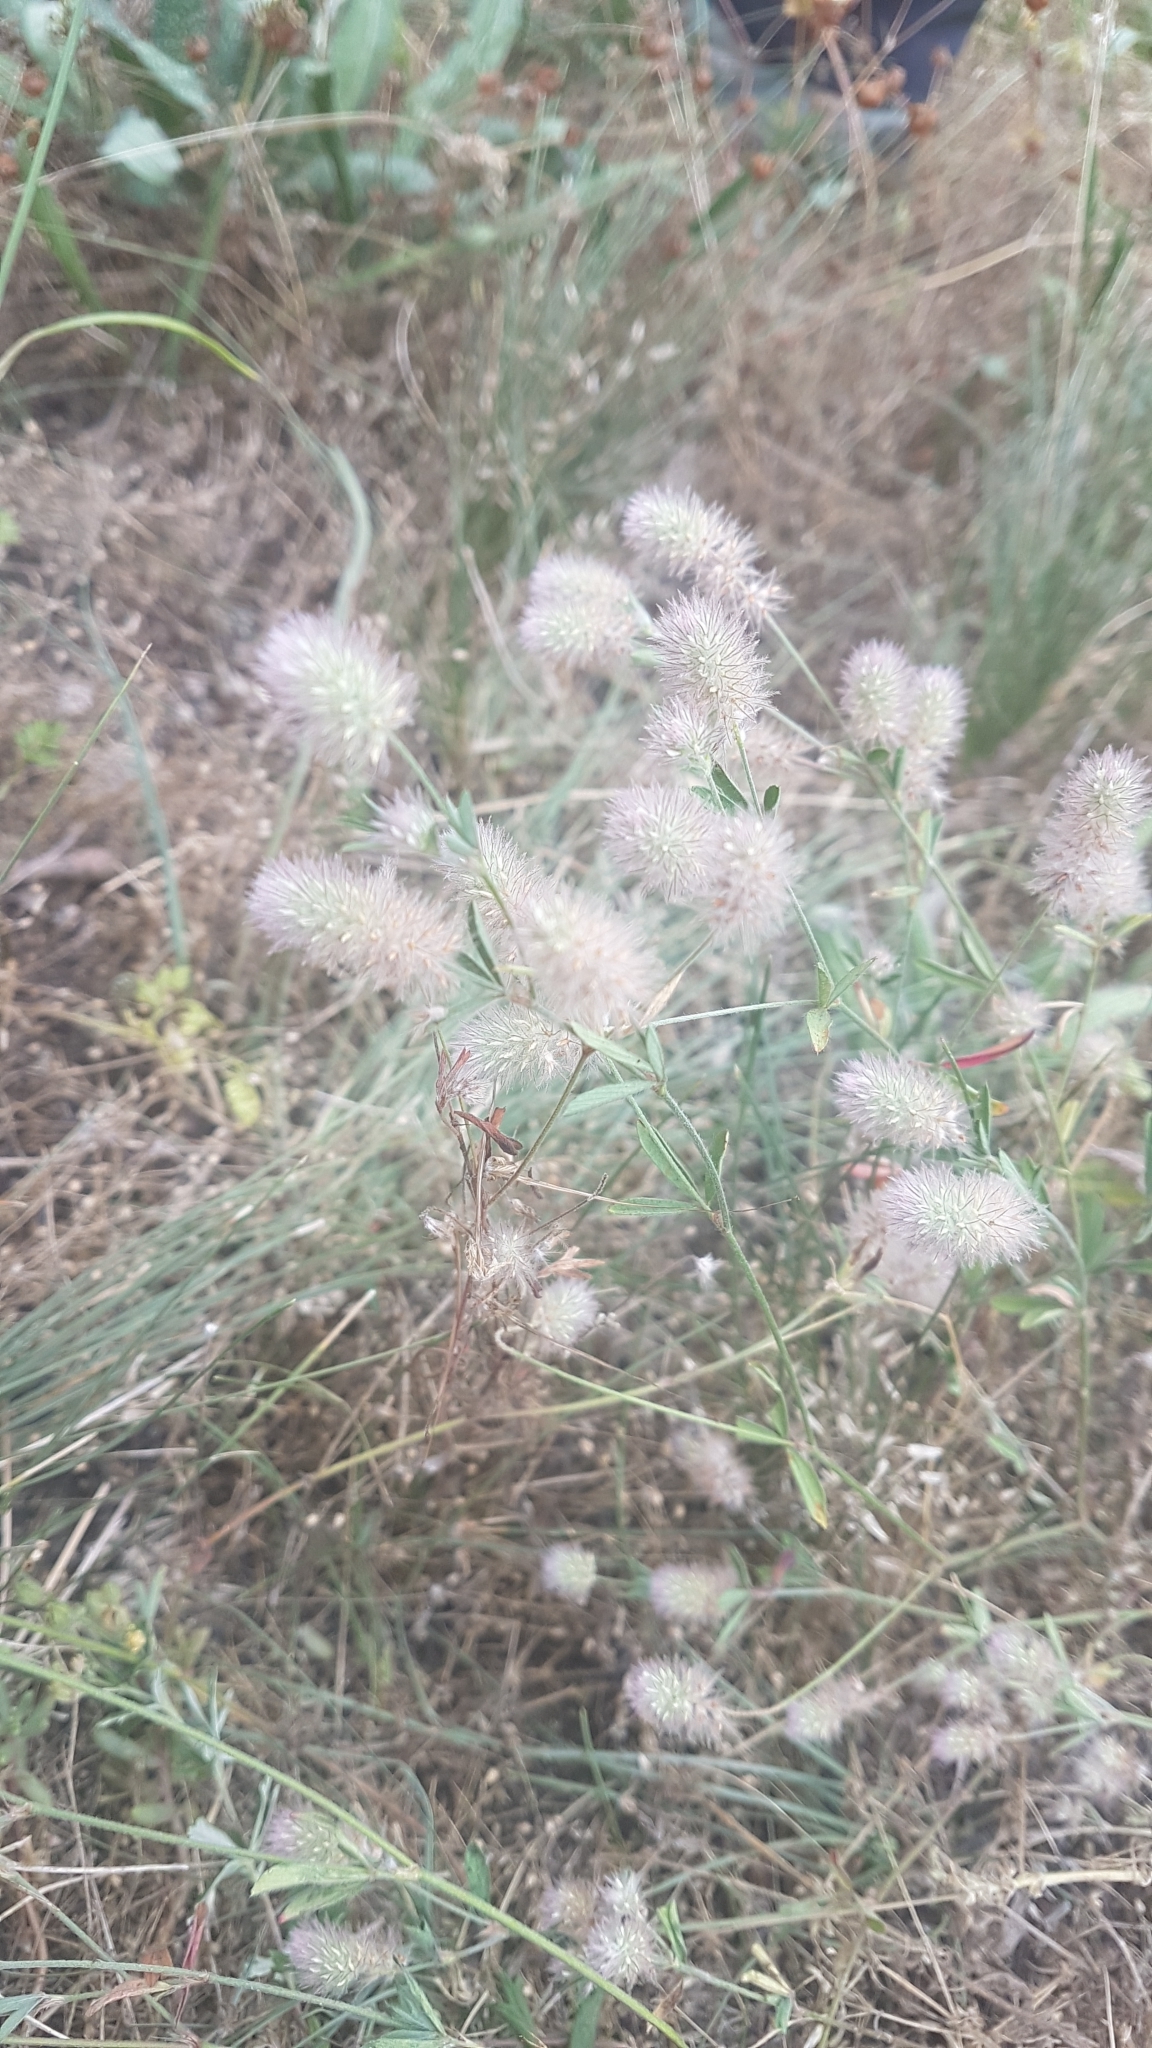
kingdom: Plantae
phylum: Tracheophyta
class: Magnoliopsida
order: Fabales
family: Fabaceae
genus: Trifolium
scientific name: Trifolium arvense
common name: Hare's-foot clover
